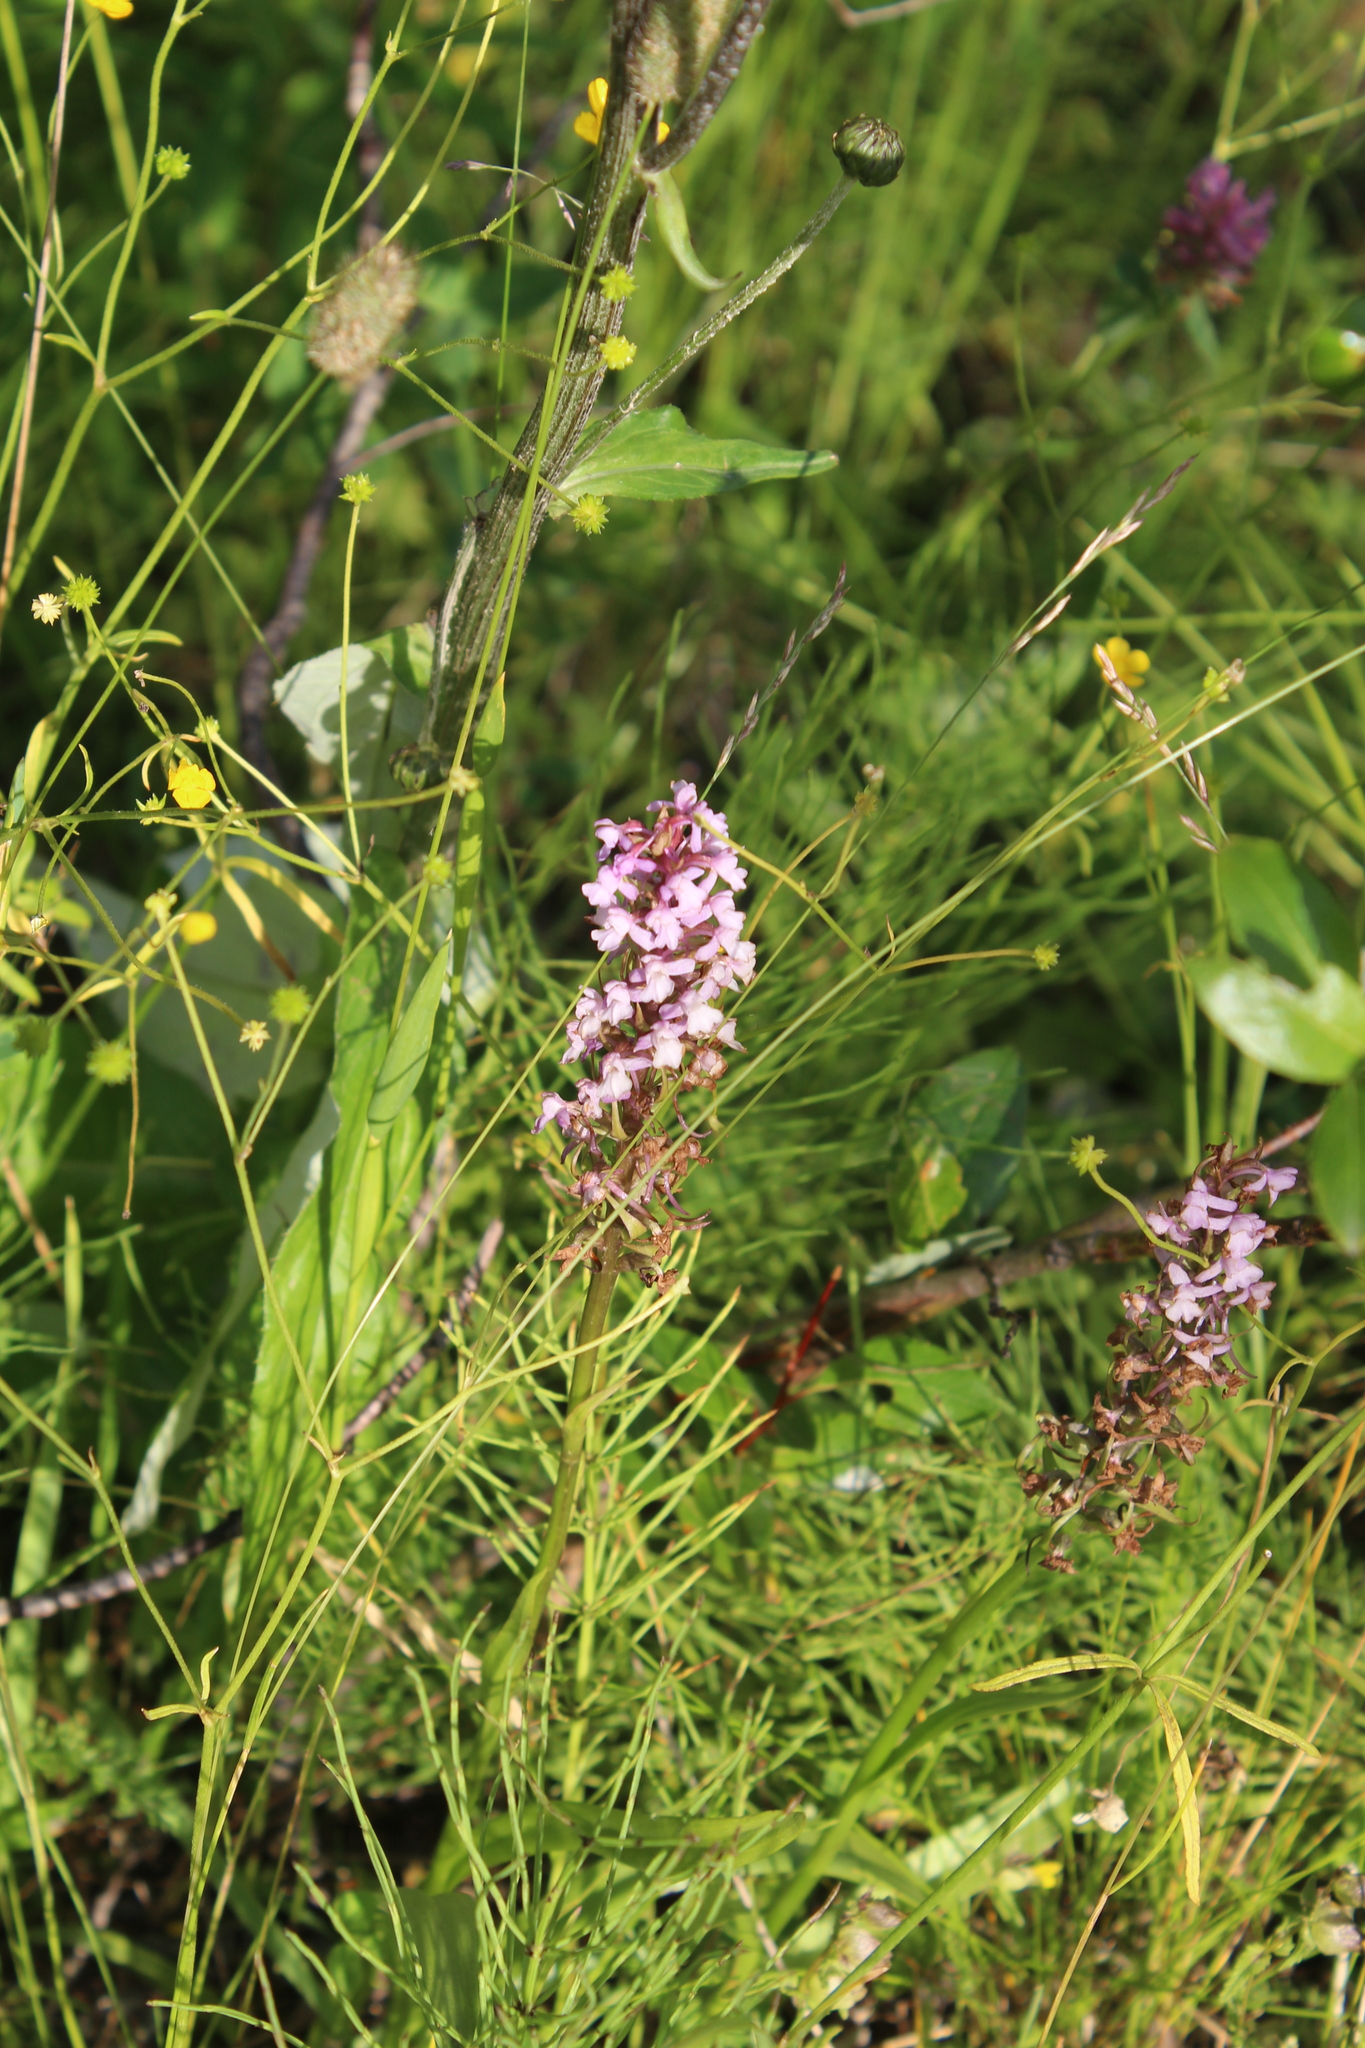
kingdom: Plantae
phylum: Tracheophyta
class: Liliopsida
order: Asparagales
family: Orchidaceae
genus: Gymnadenia
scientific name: Gymnadenia conopsea
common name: Fragrant orchid
